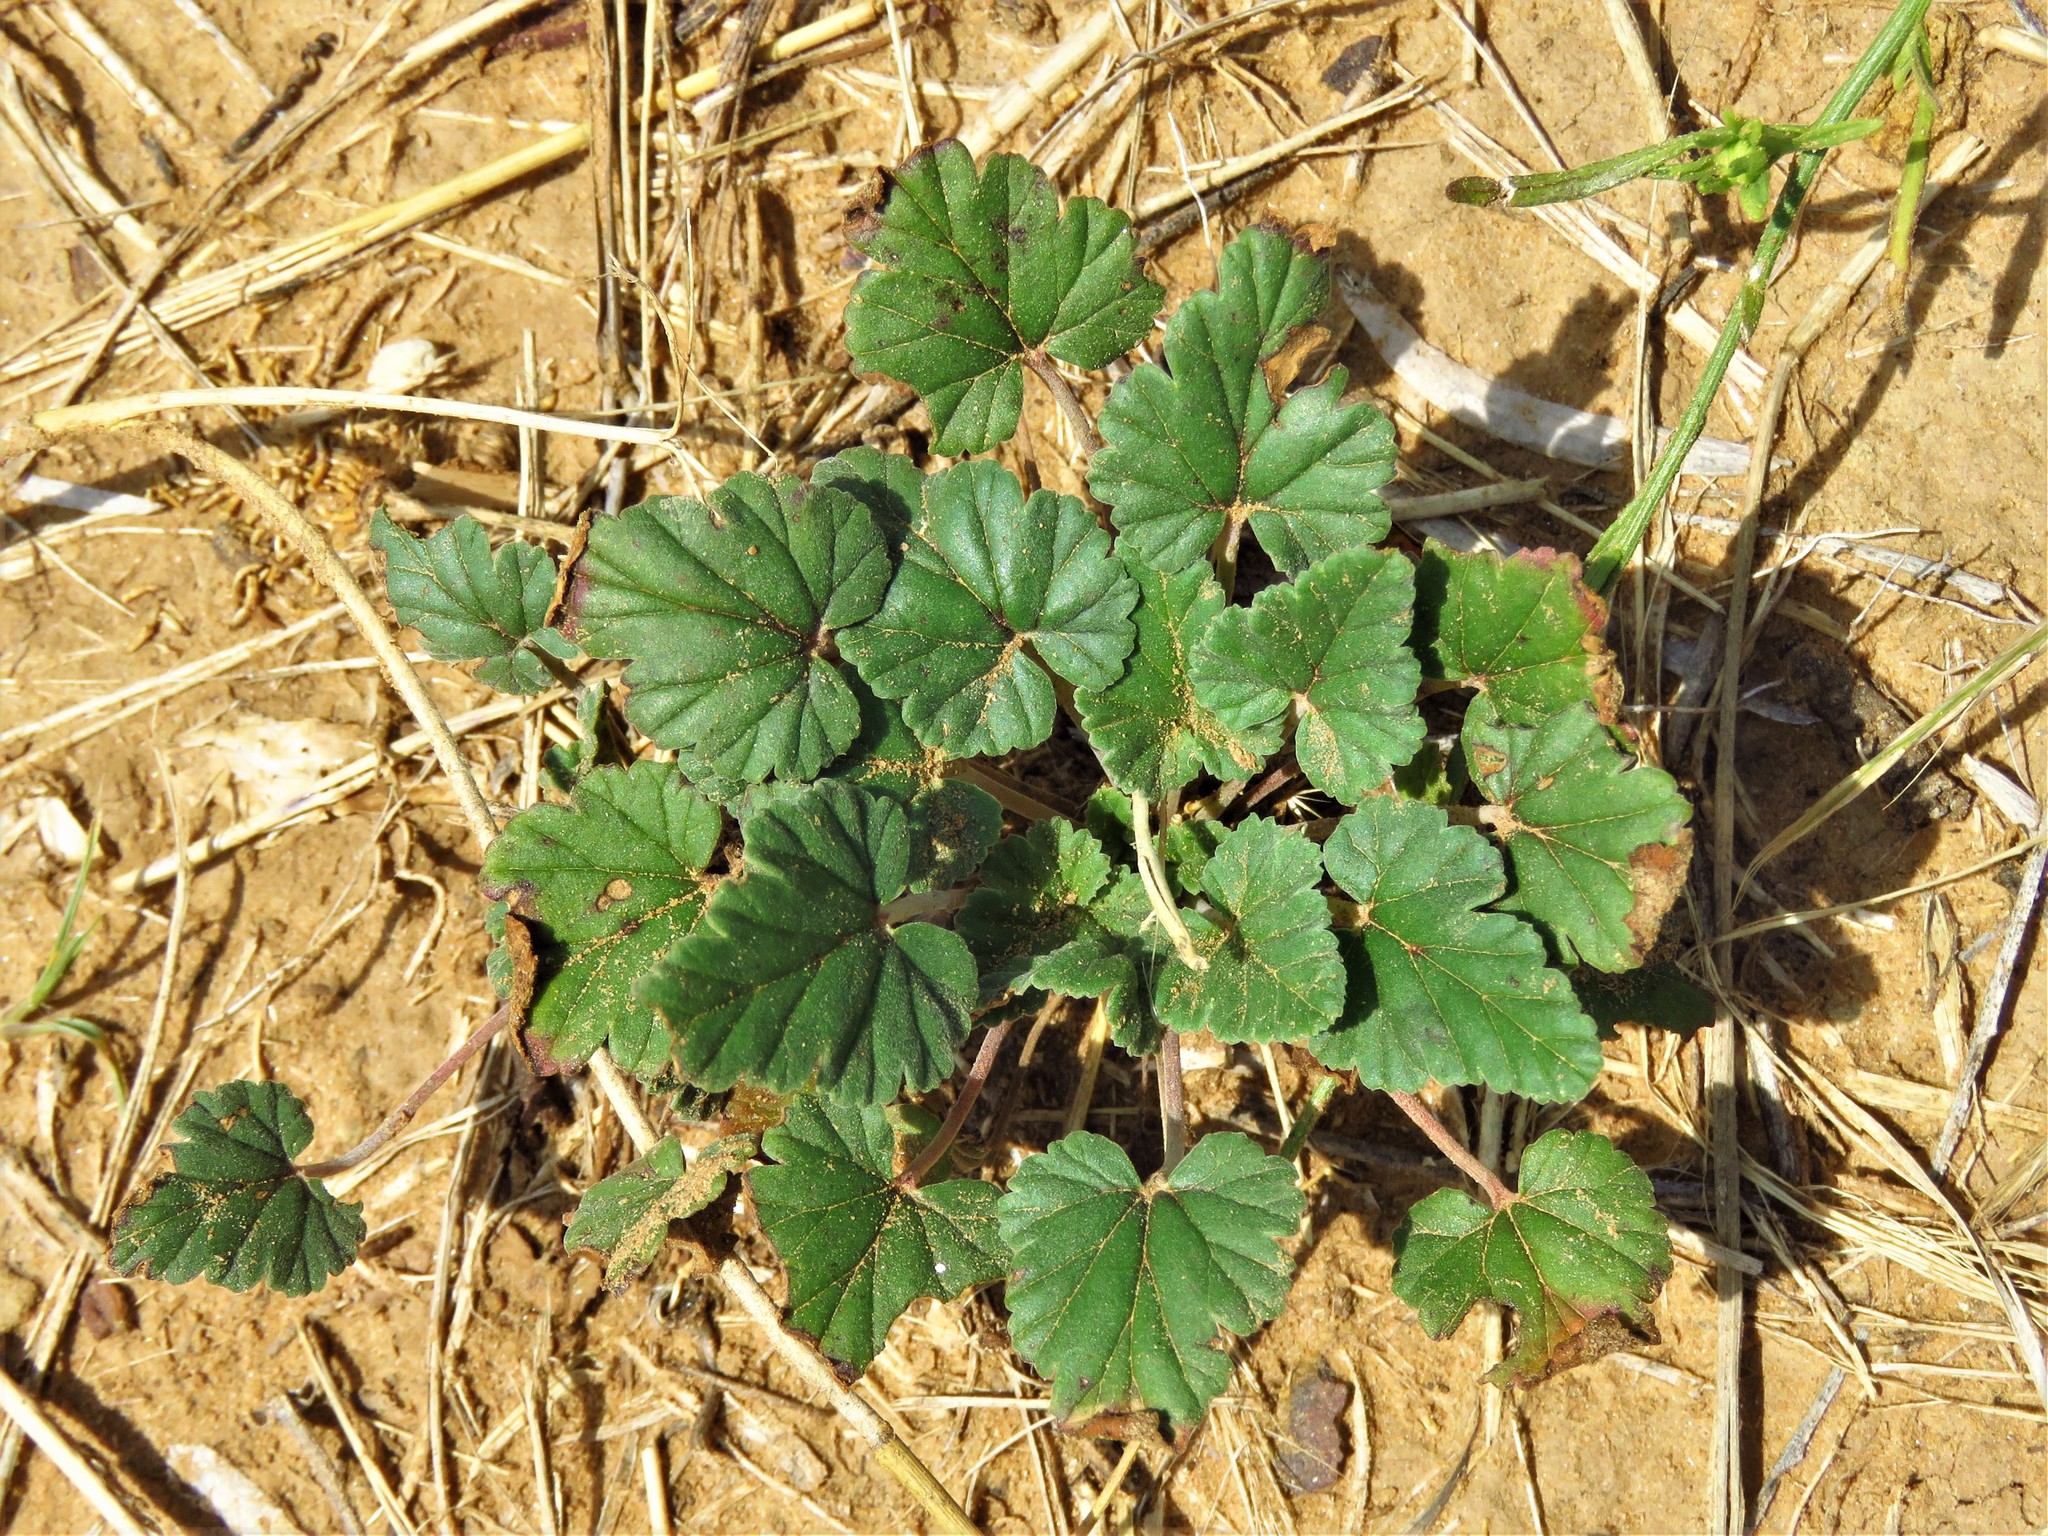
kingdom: Plantae
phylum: Tracheophyta
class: Magnoliopsida
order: Geraniales
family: Geraniaceae
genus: Erodium
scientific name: Erodium texanum
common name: Texas stork's-bill
